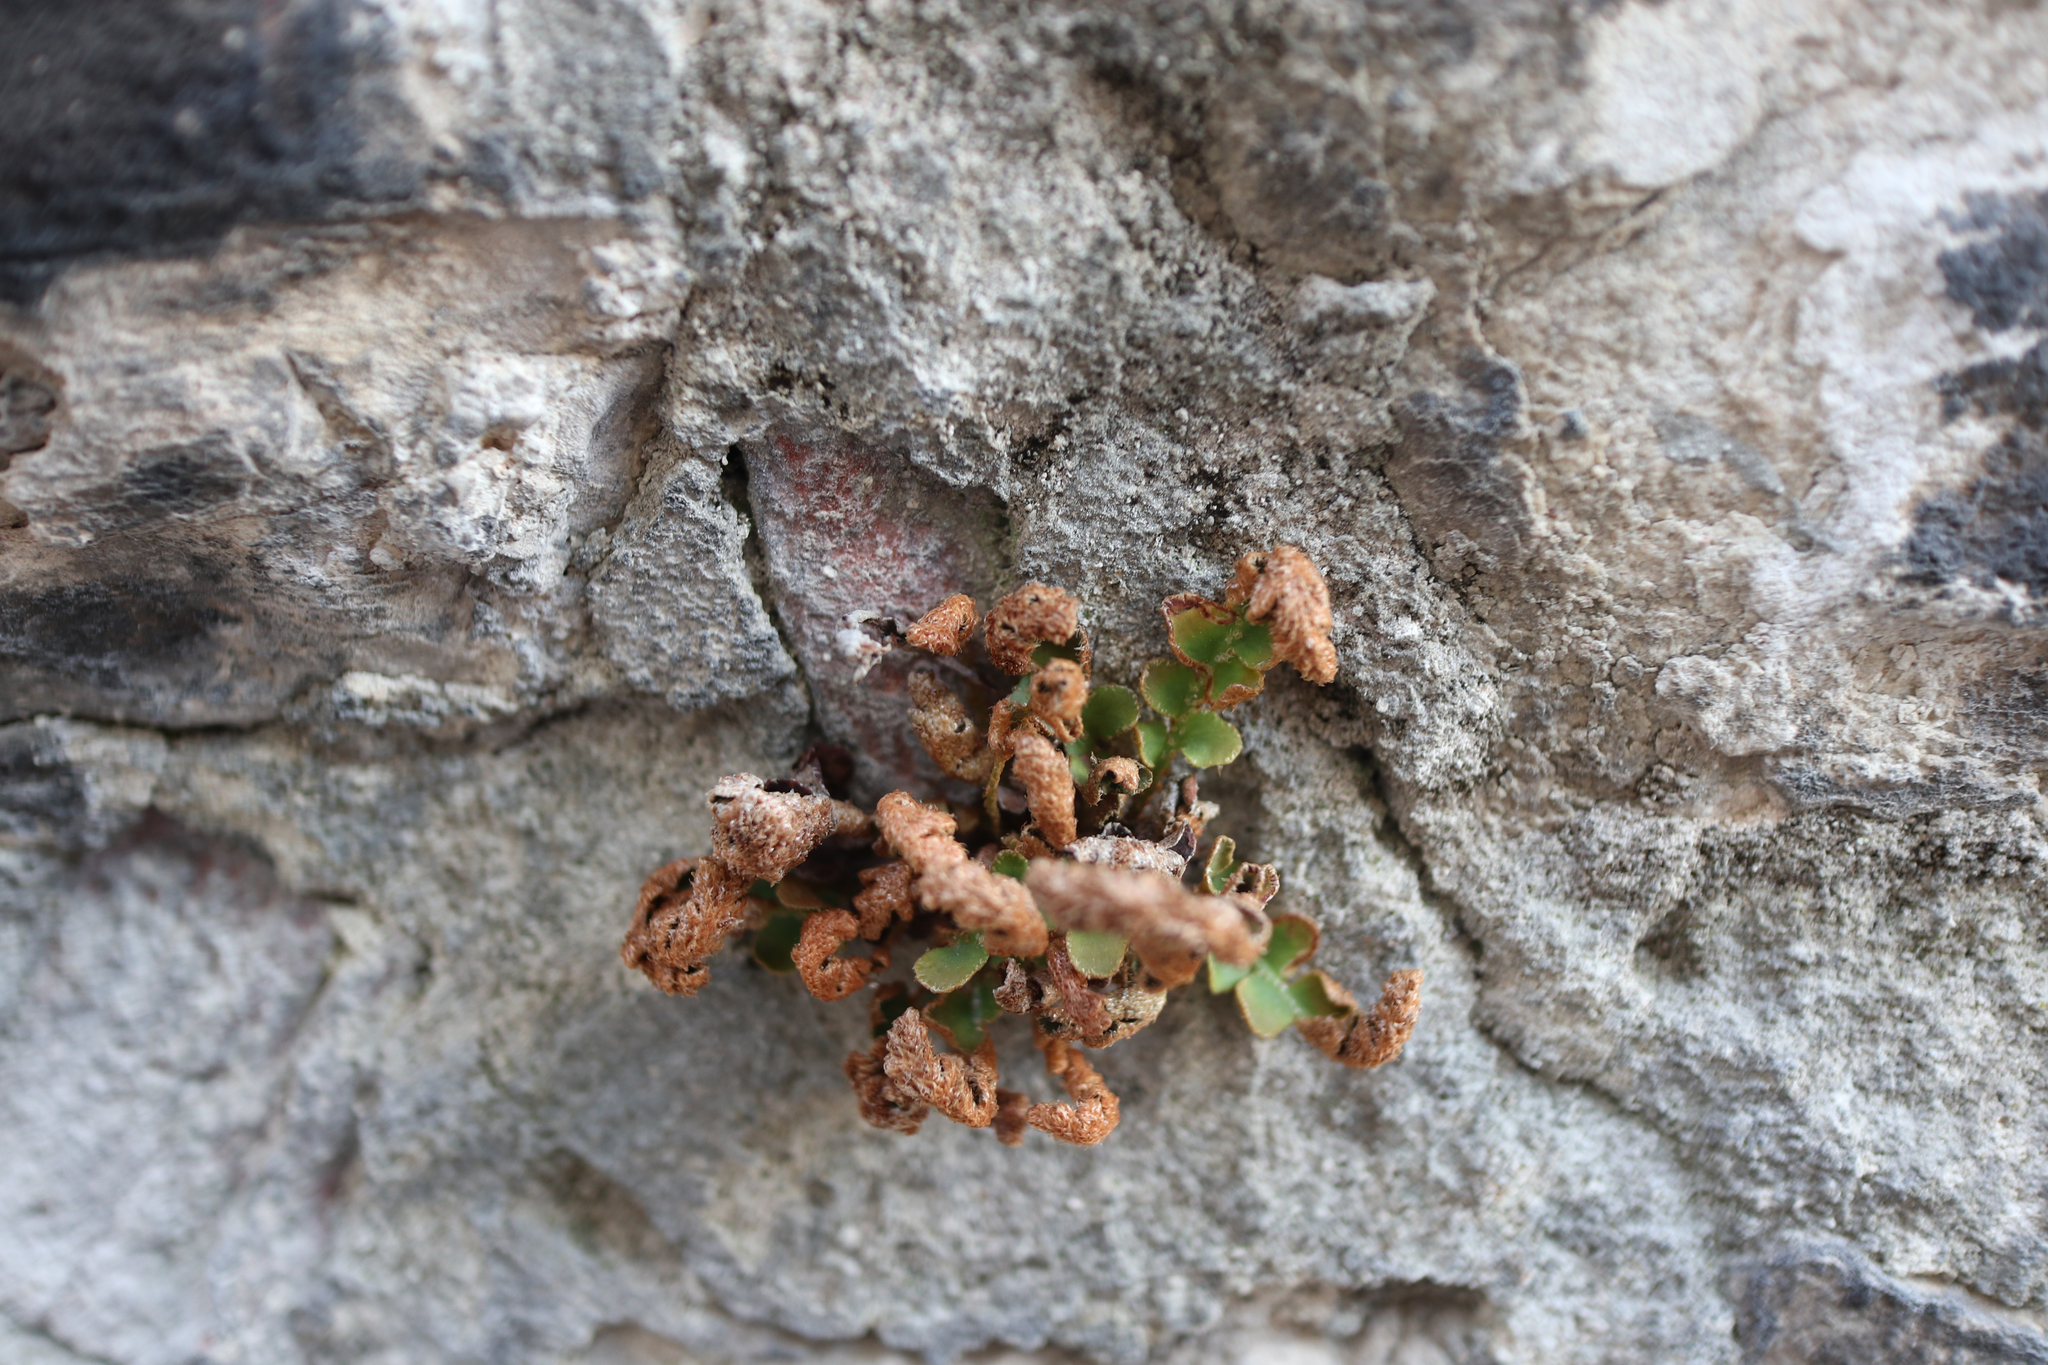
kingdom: Plantae
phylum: Tracheophyta
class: Polypodiopsida
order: Polypodiales
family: Aspleniaceae
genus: Asplenium
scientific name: Asplenium ceterach
